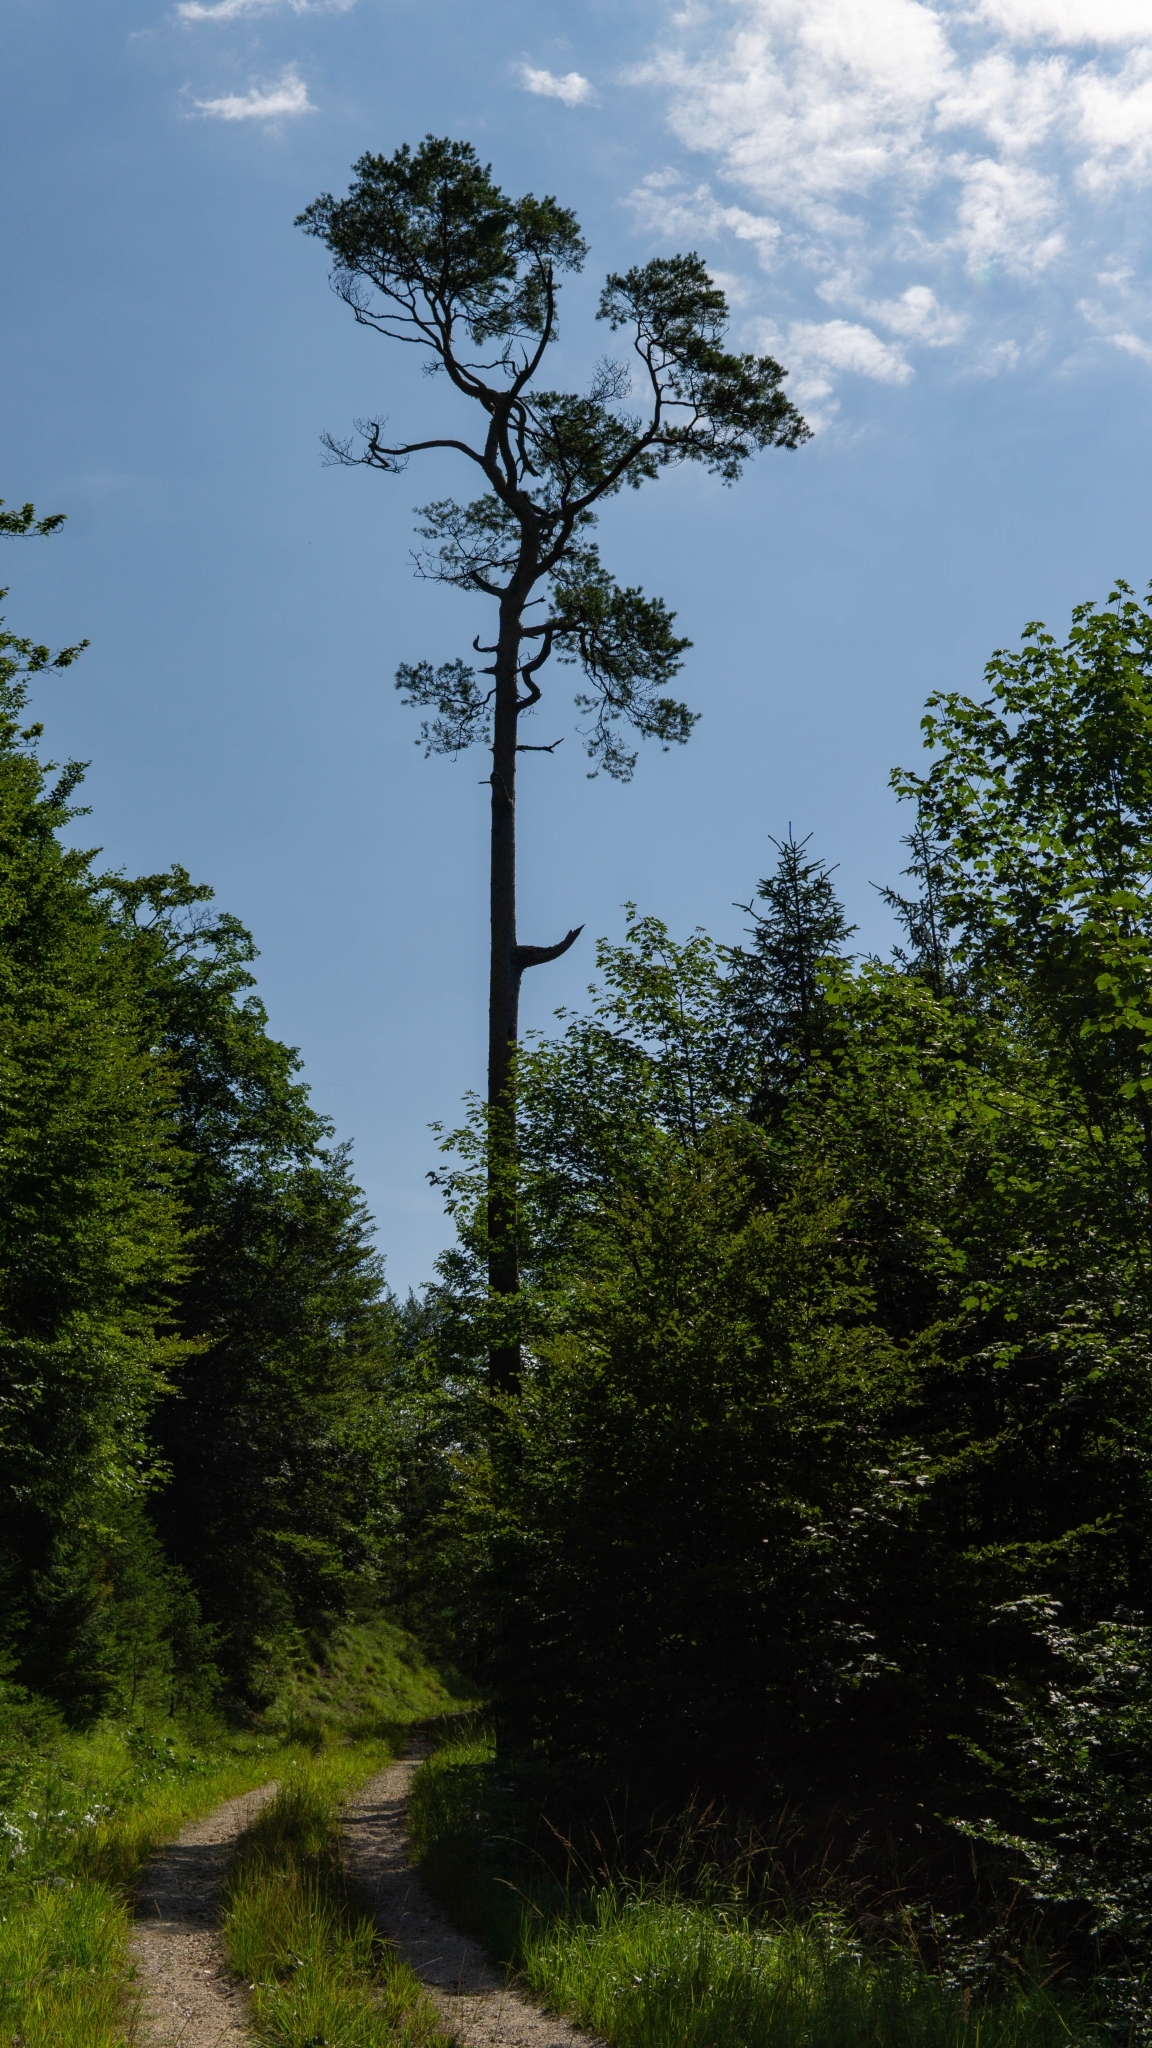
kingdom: Plantae
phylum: Tracheophyta
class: Pinopsida
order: Pinales
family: Pinaceae
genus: Pinus
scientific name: Pinus sylvestris
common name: Scots pine
